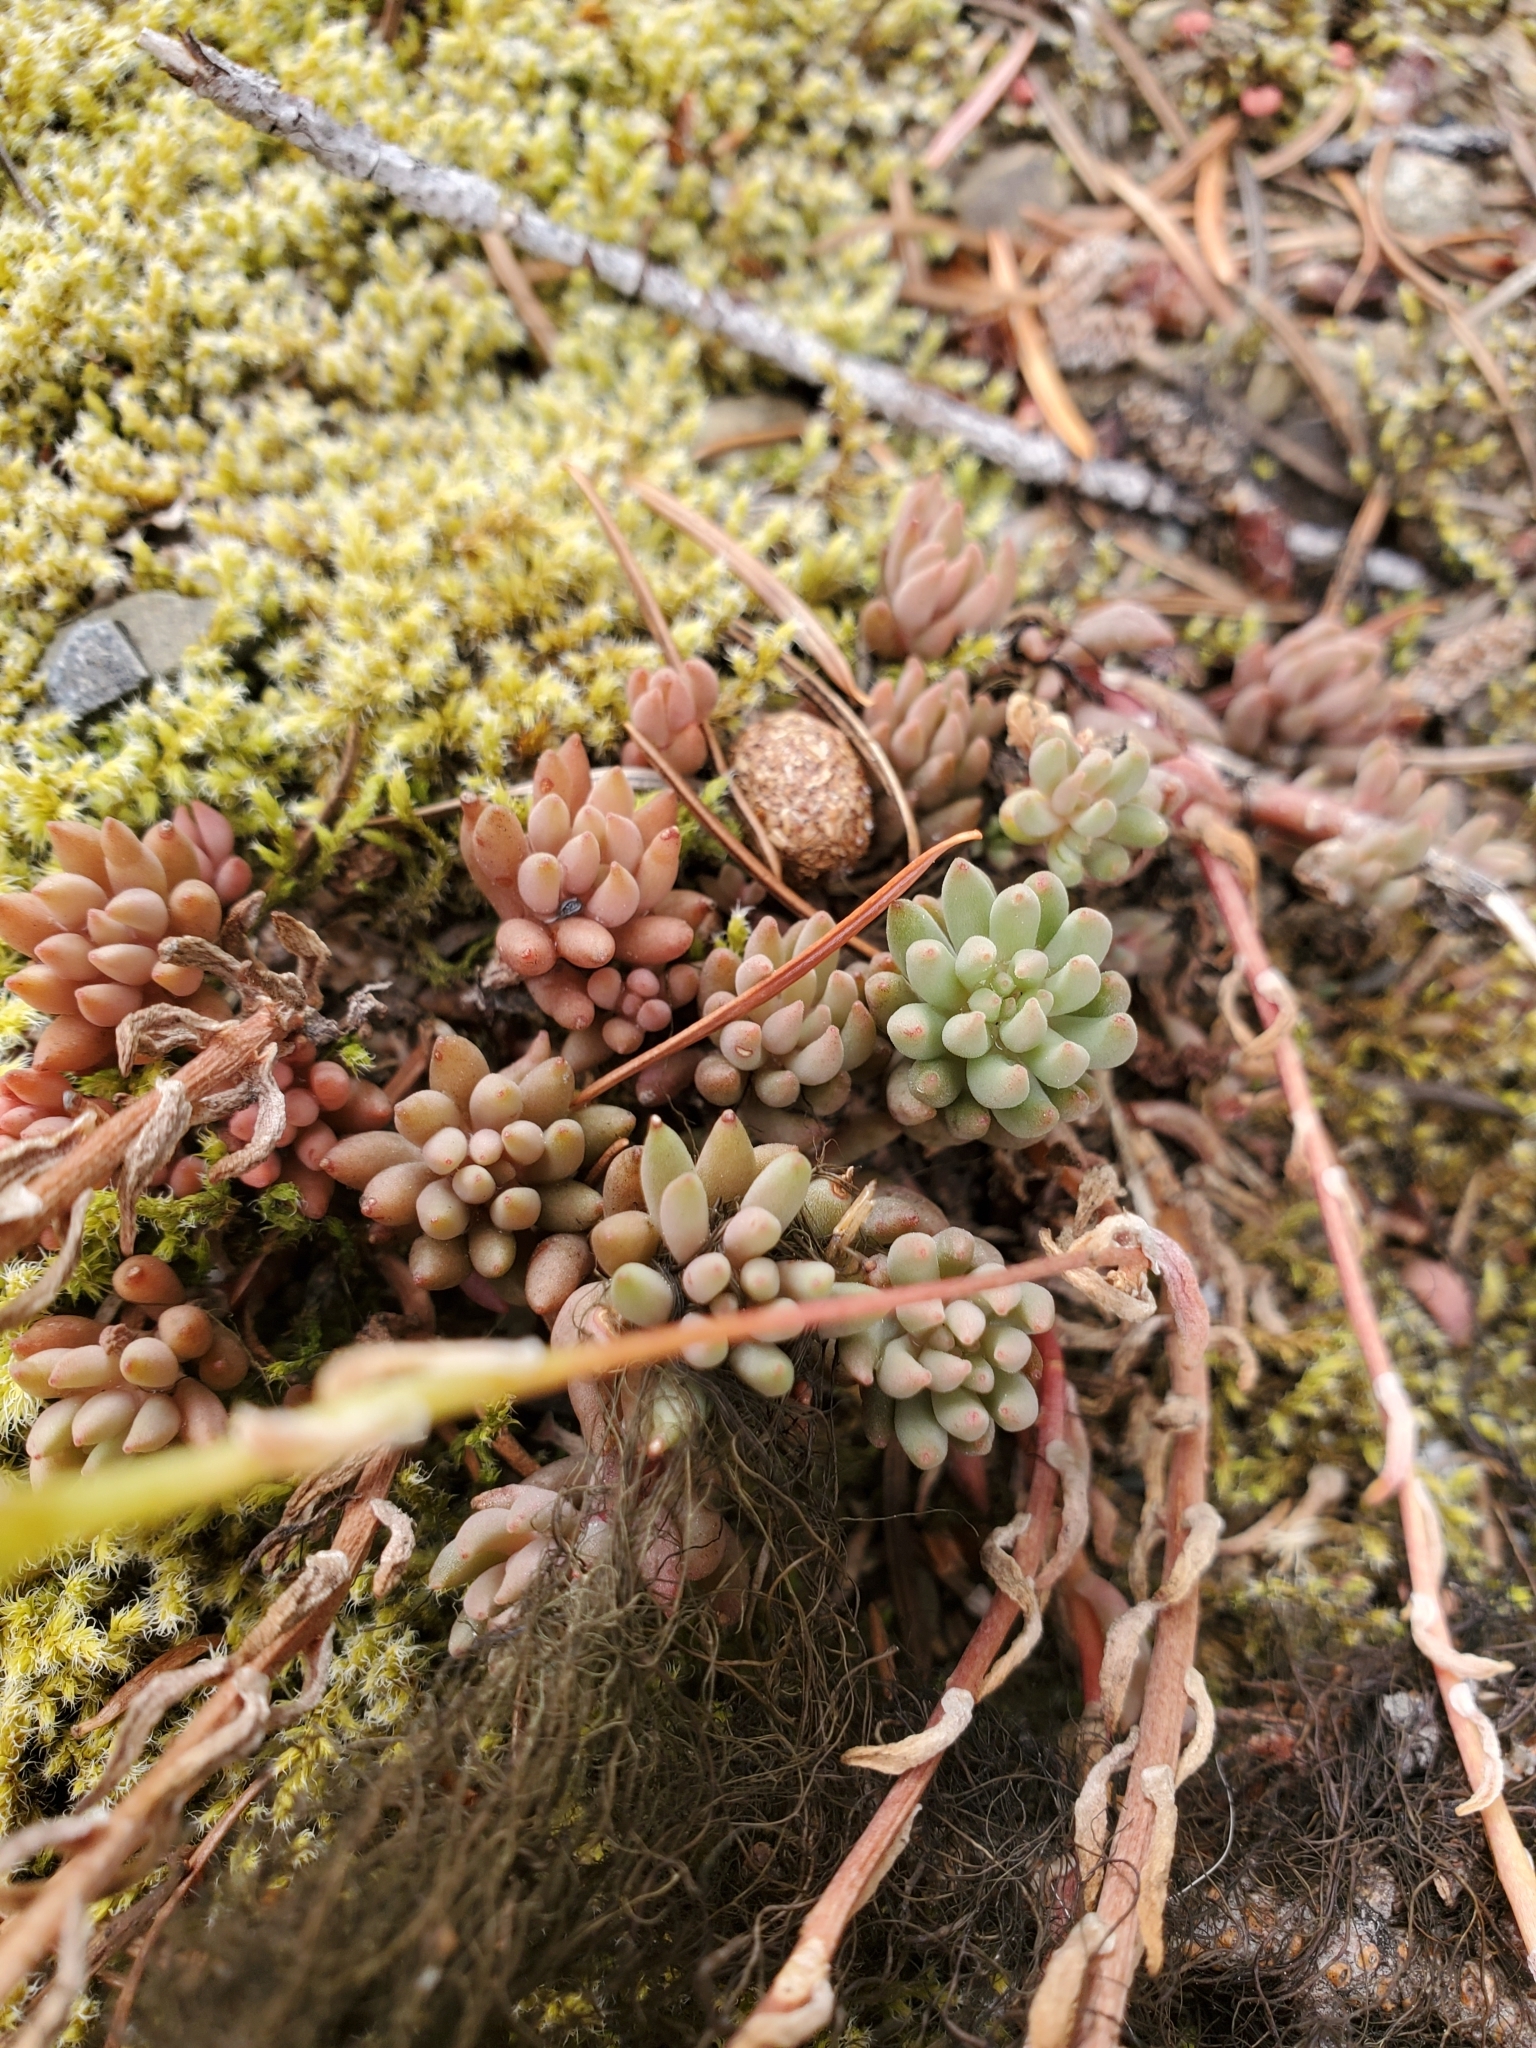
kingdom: Plantae
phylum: Tracheophyta
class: Magnoliopsida
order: Saxifragales
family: Crassulaceae
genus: Sedum
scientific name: Sedum lanceolatum
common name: Common stonecrop
